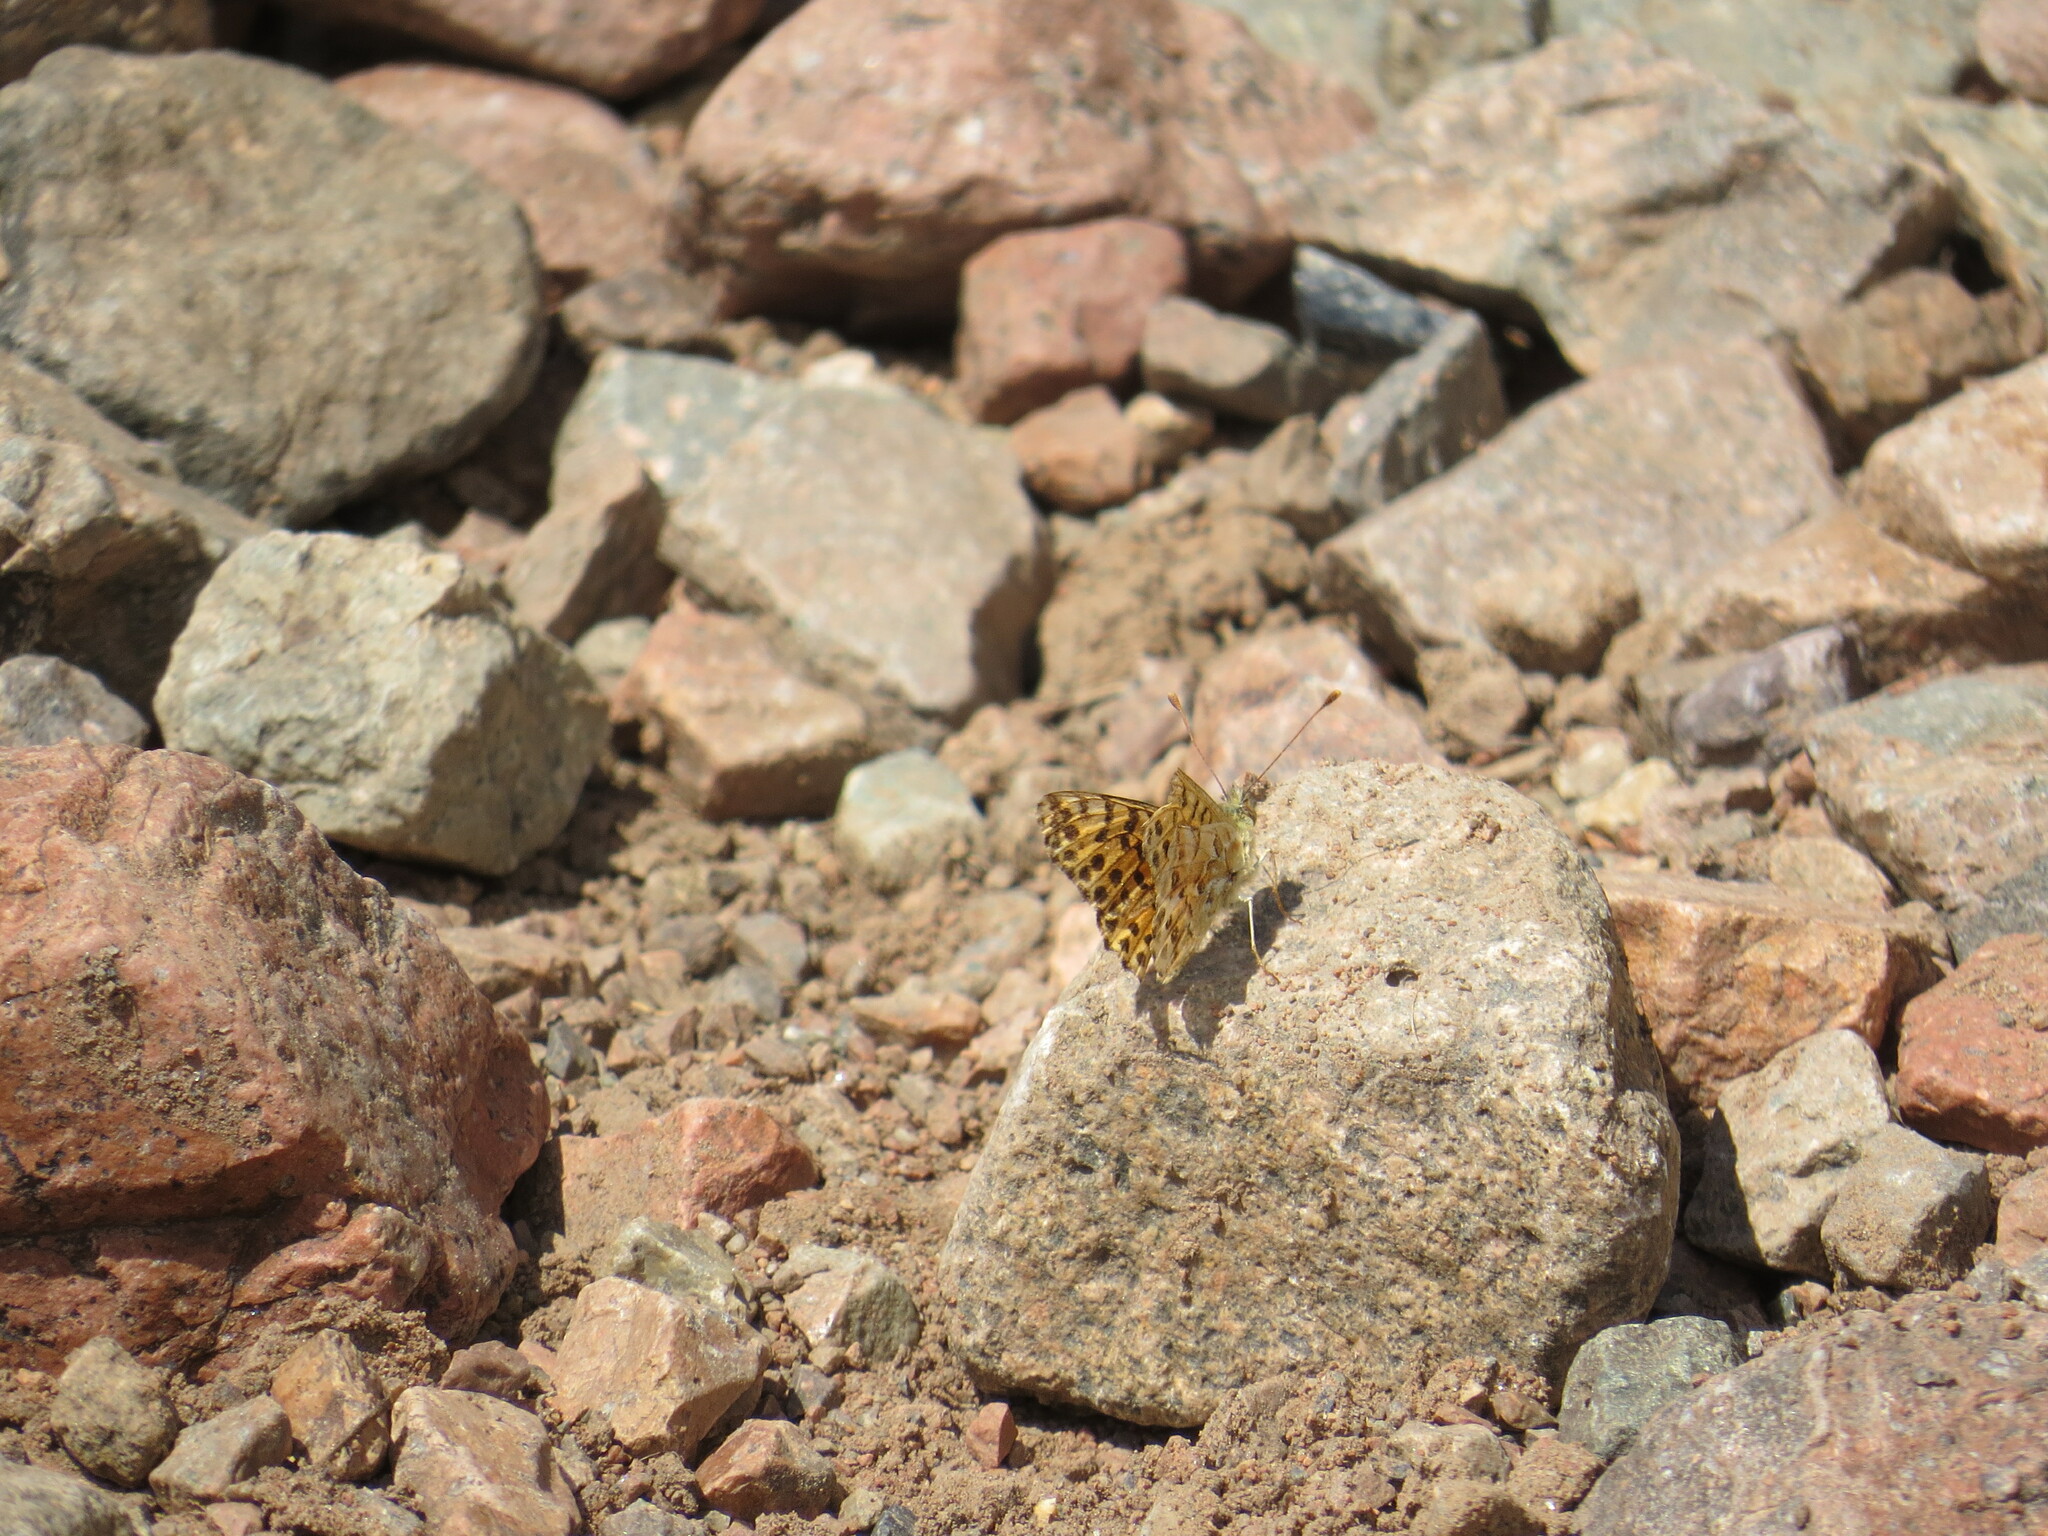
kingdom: Animalia
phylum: Arthropoda
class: Insecta
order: Lepidoptera
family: Nymphalidae
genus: Issoria
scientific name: Issoria Yramea lathonoides
